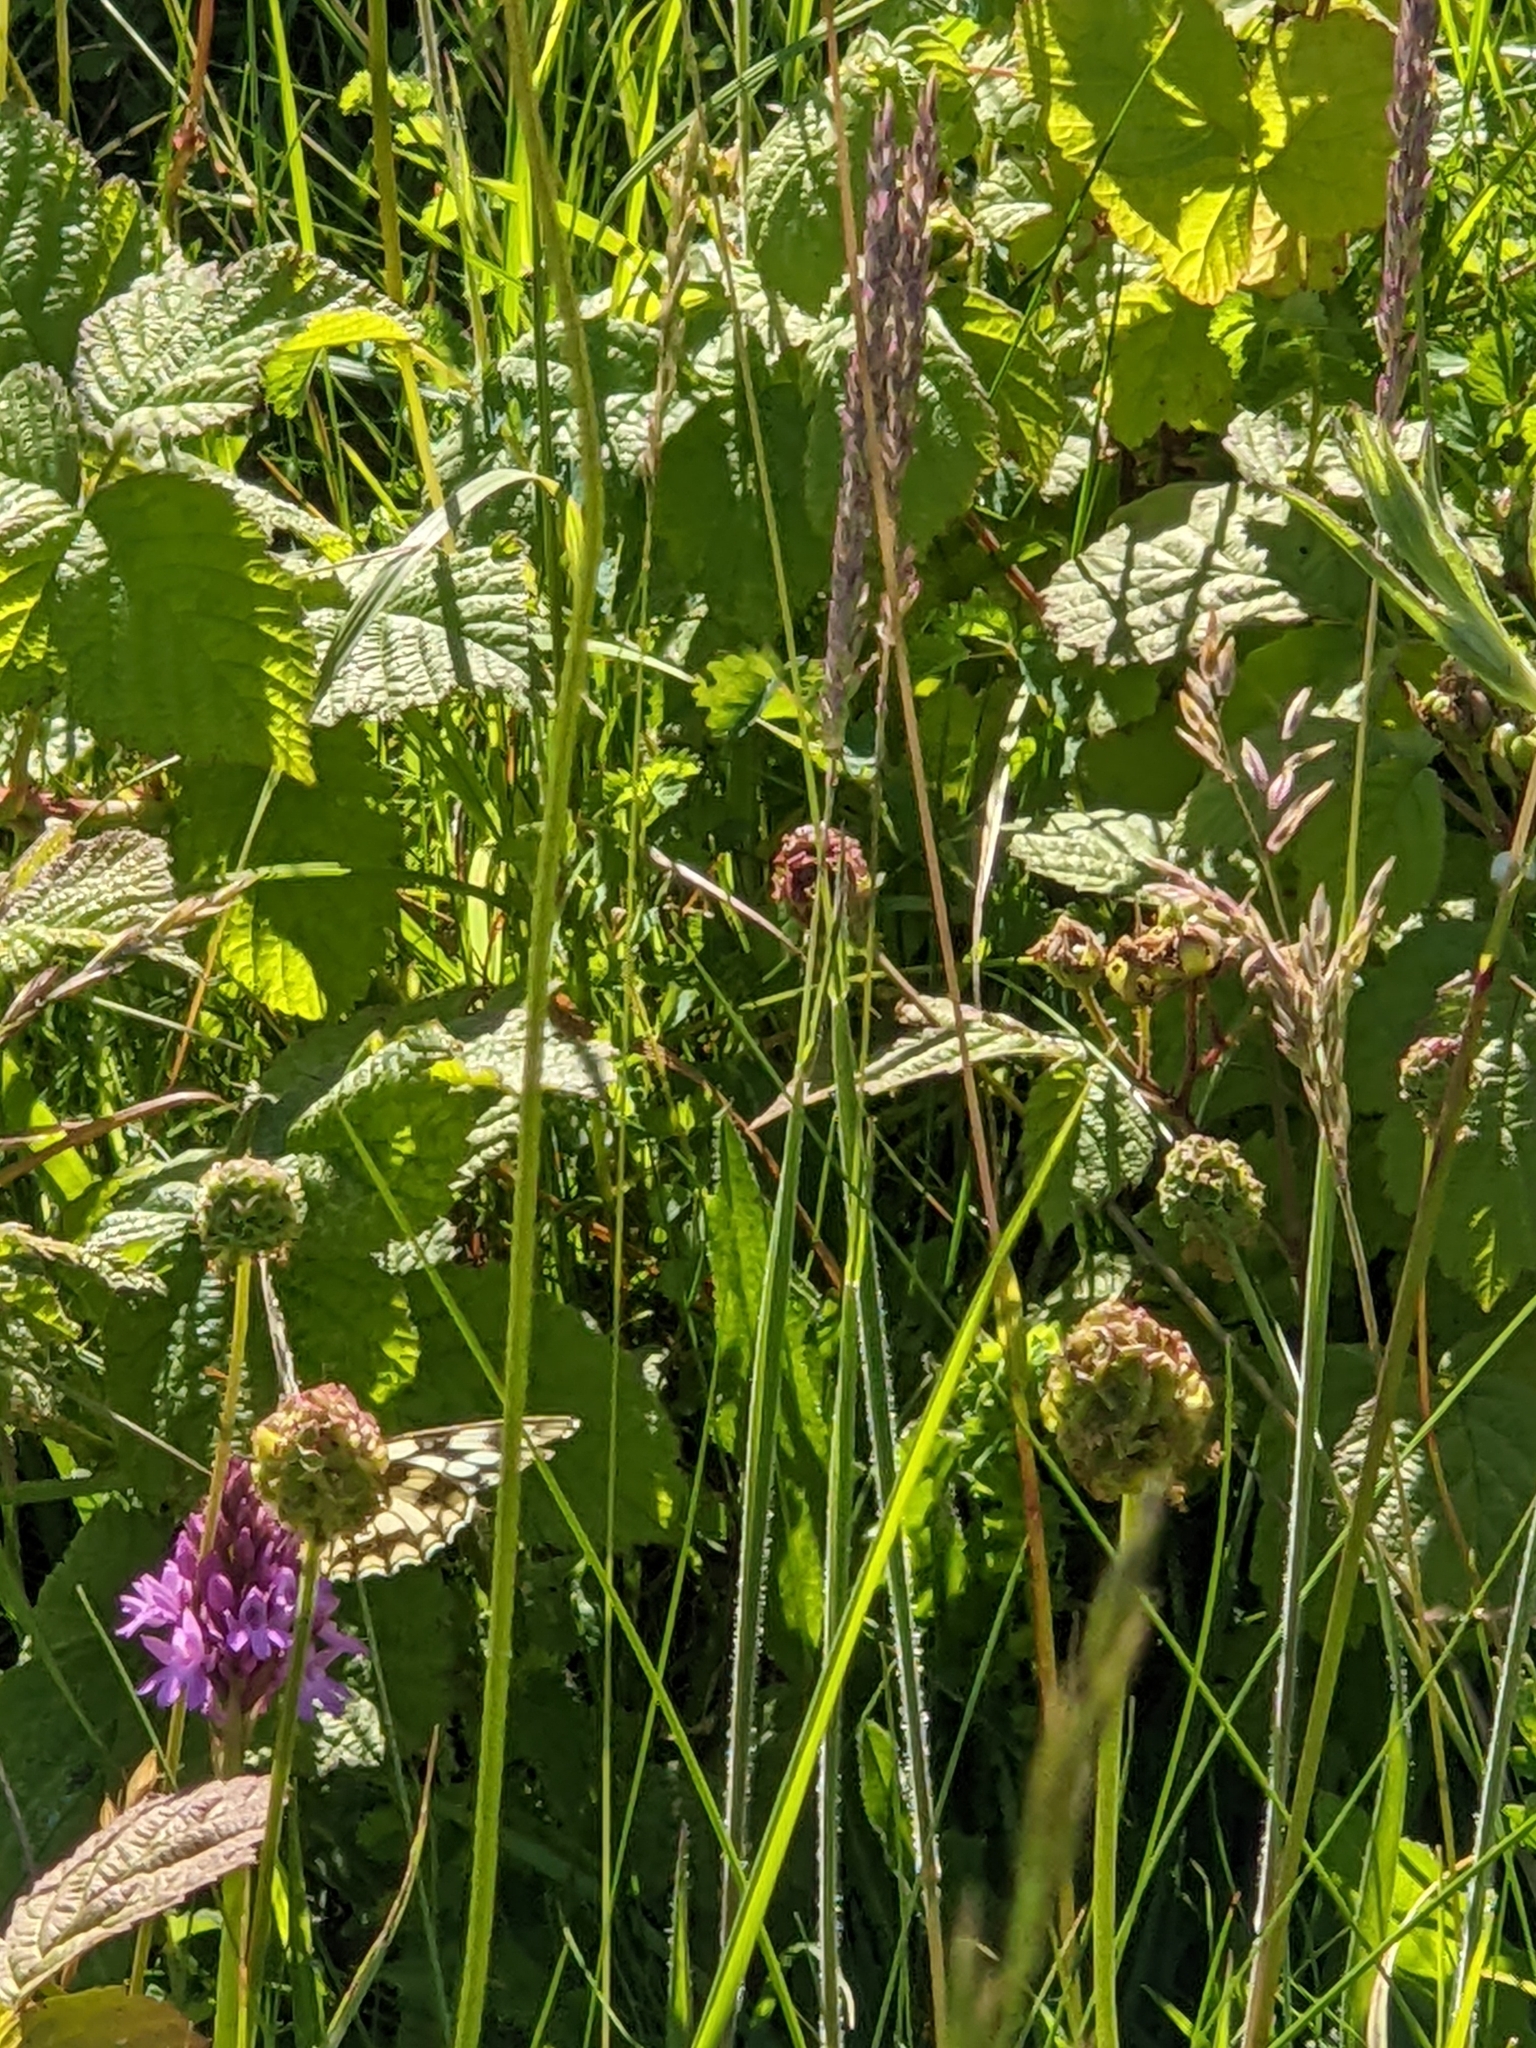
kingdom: Animalia
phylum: Arthropoda
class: Insecta
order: Lepidoptera
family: Nymphalidae
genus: Melanargia
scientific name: Melanargia galathea
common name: Marbled white
